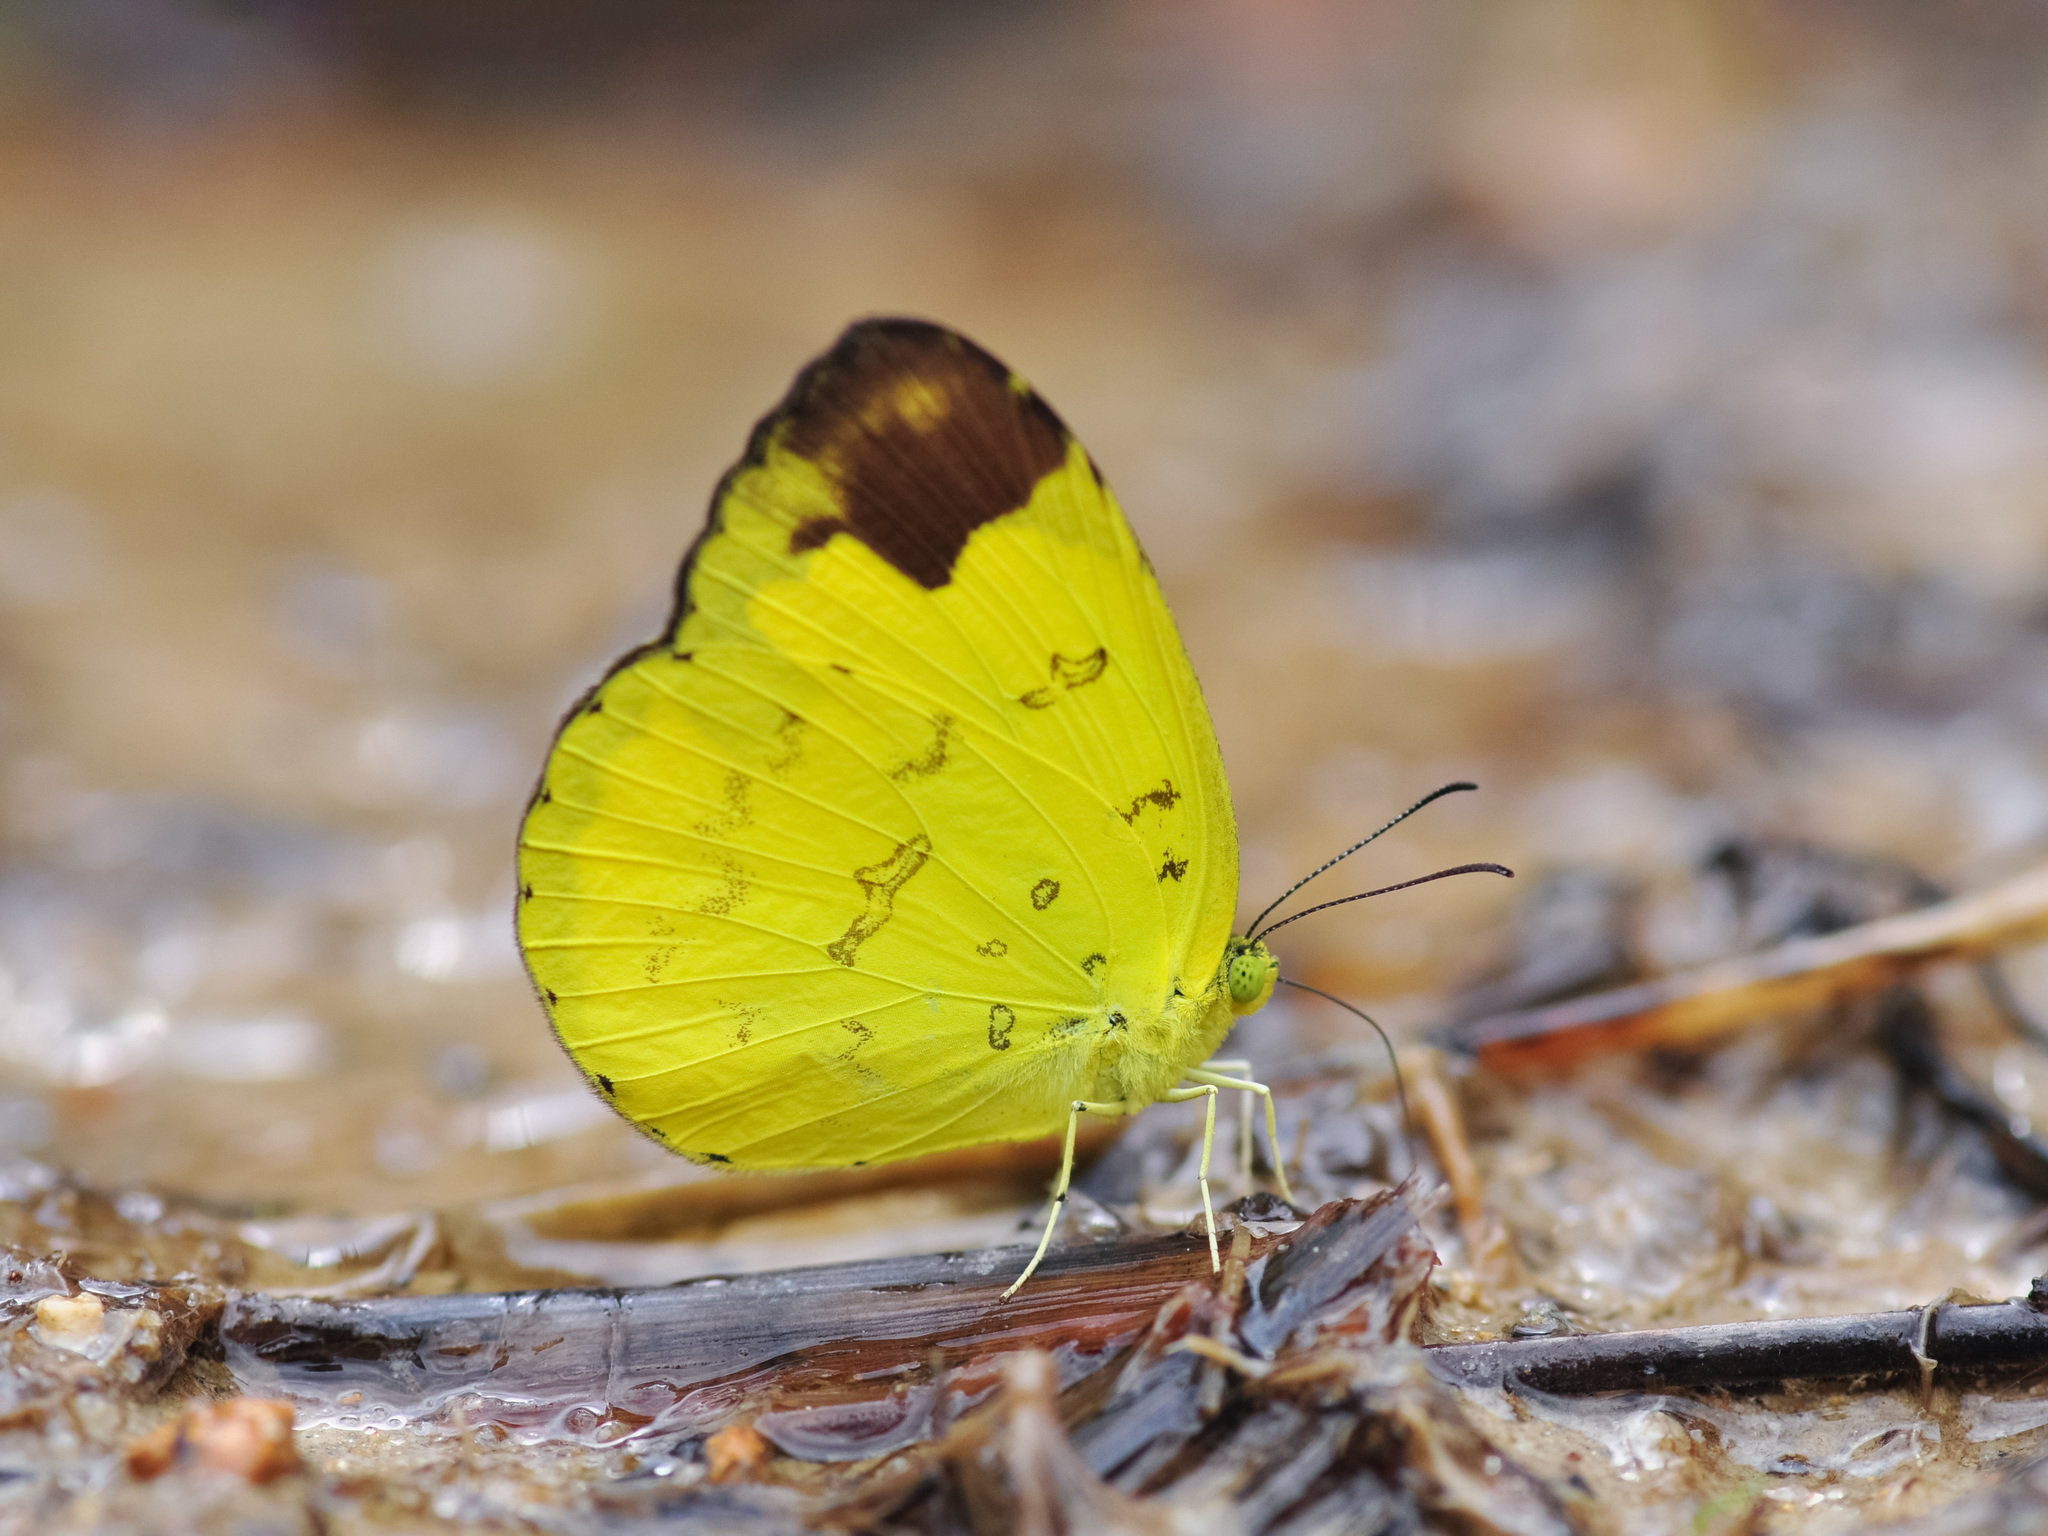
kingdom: Animalia
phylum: Arthropoda
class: Insecta
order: Lepidoptera
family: Pieridae
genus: Eurema
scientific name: Eurema simulatrix
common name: Hill grass yellow
